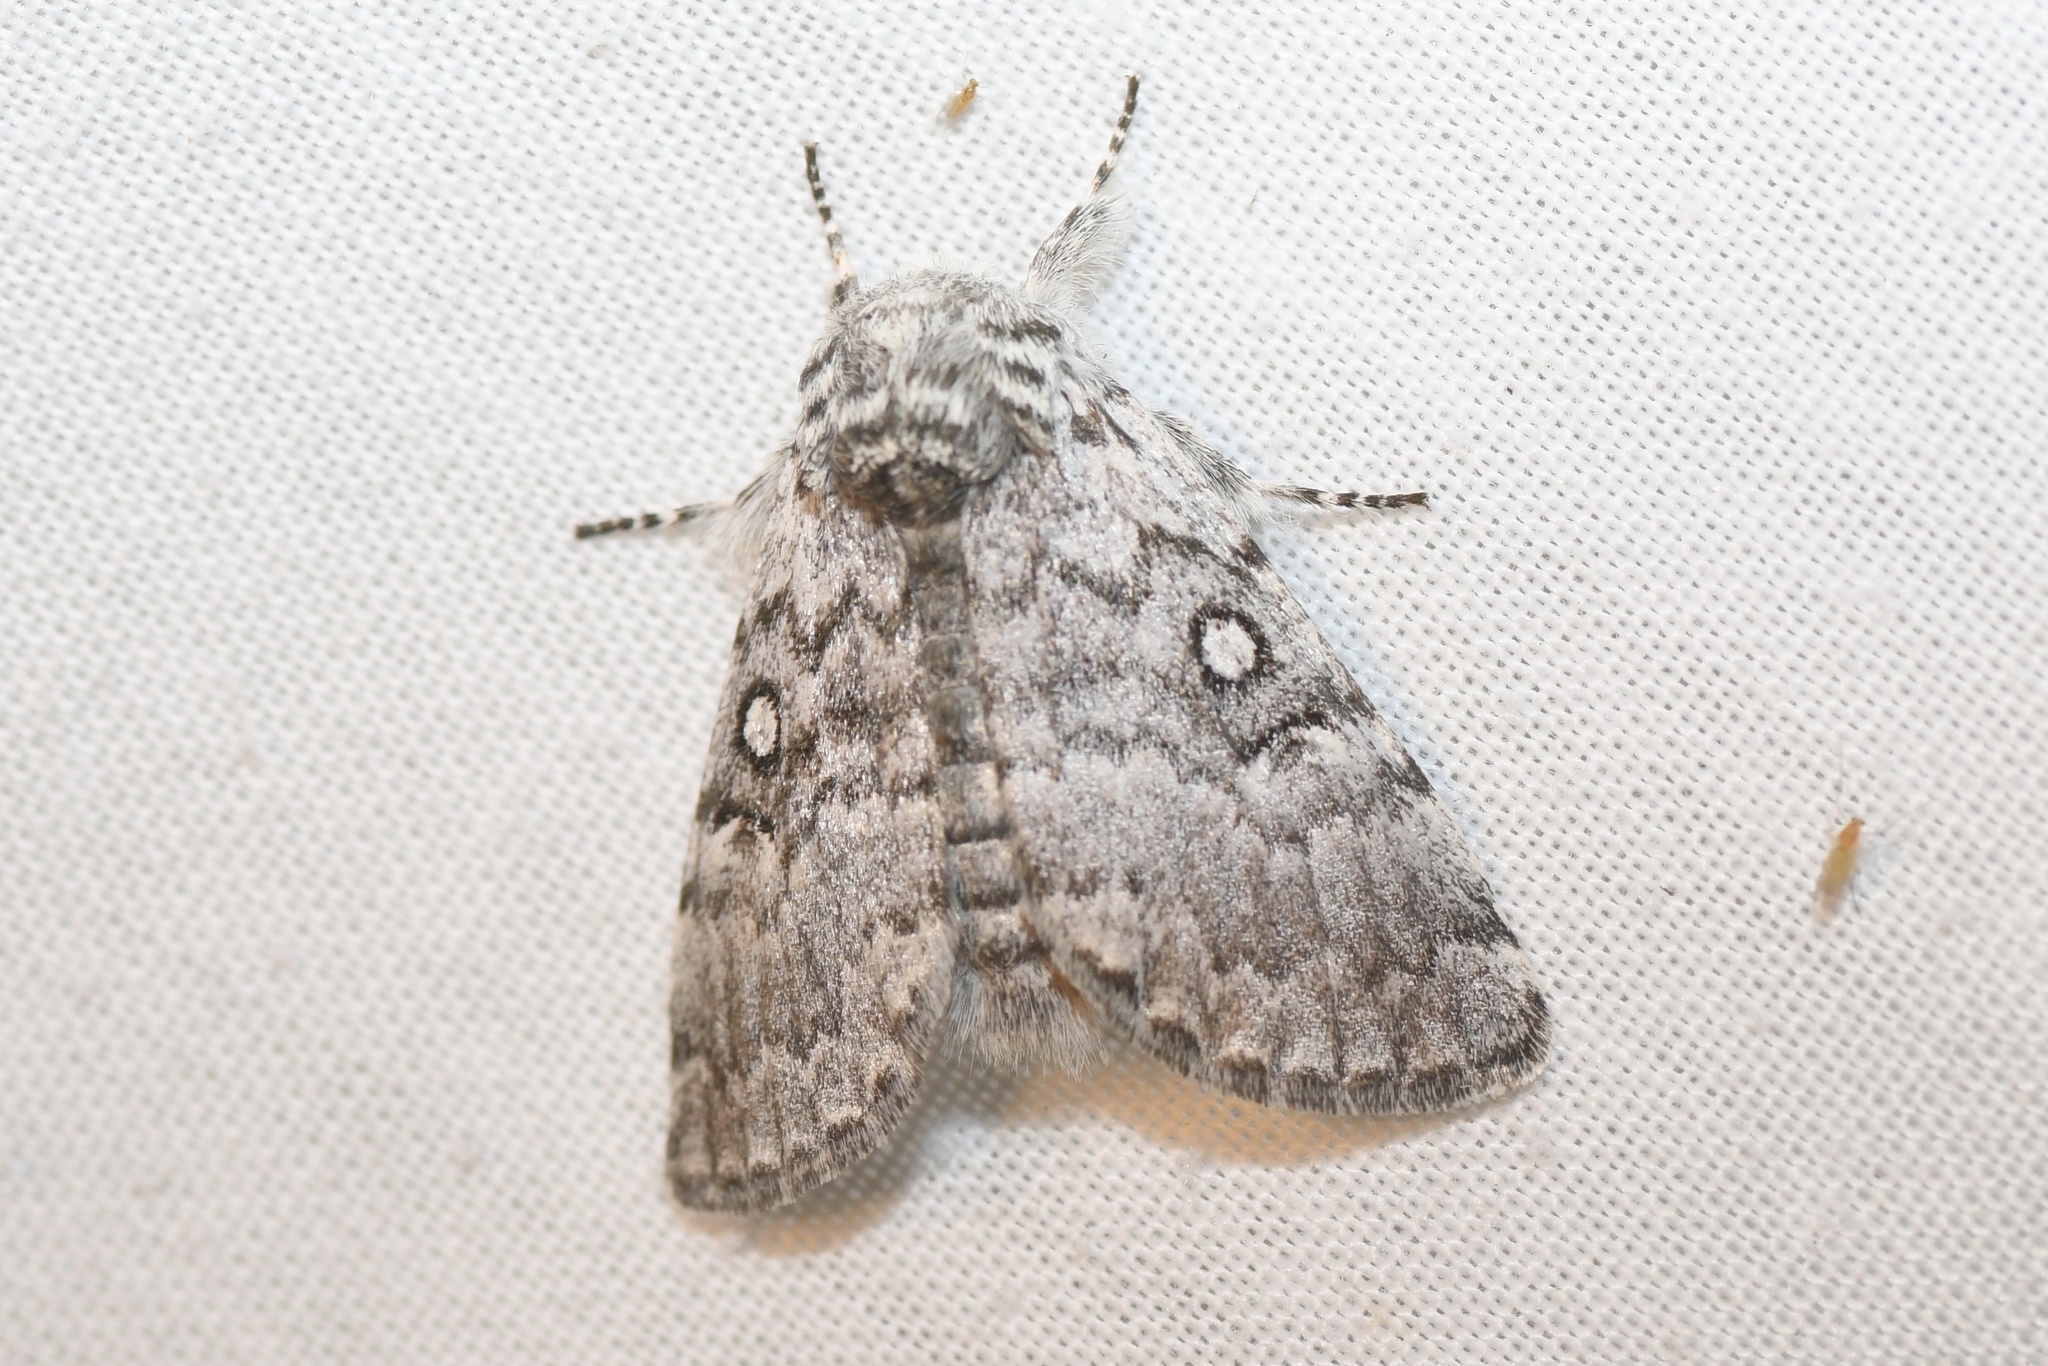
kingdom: Animalia
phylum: Arthropoda
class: Insecta
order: Lepidoptera
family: Noctuidae
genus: Colocasia
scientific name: Colocasia propinquilinea
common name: Close-banded demas
